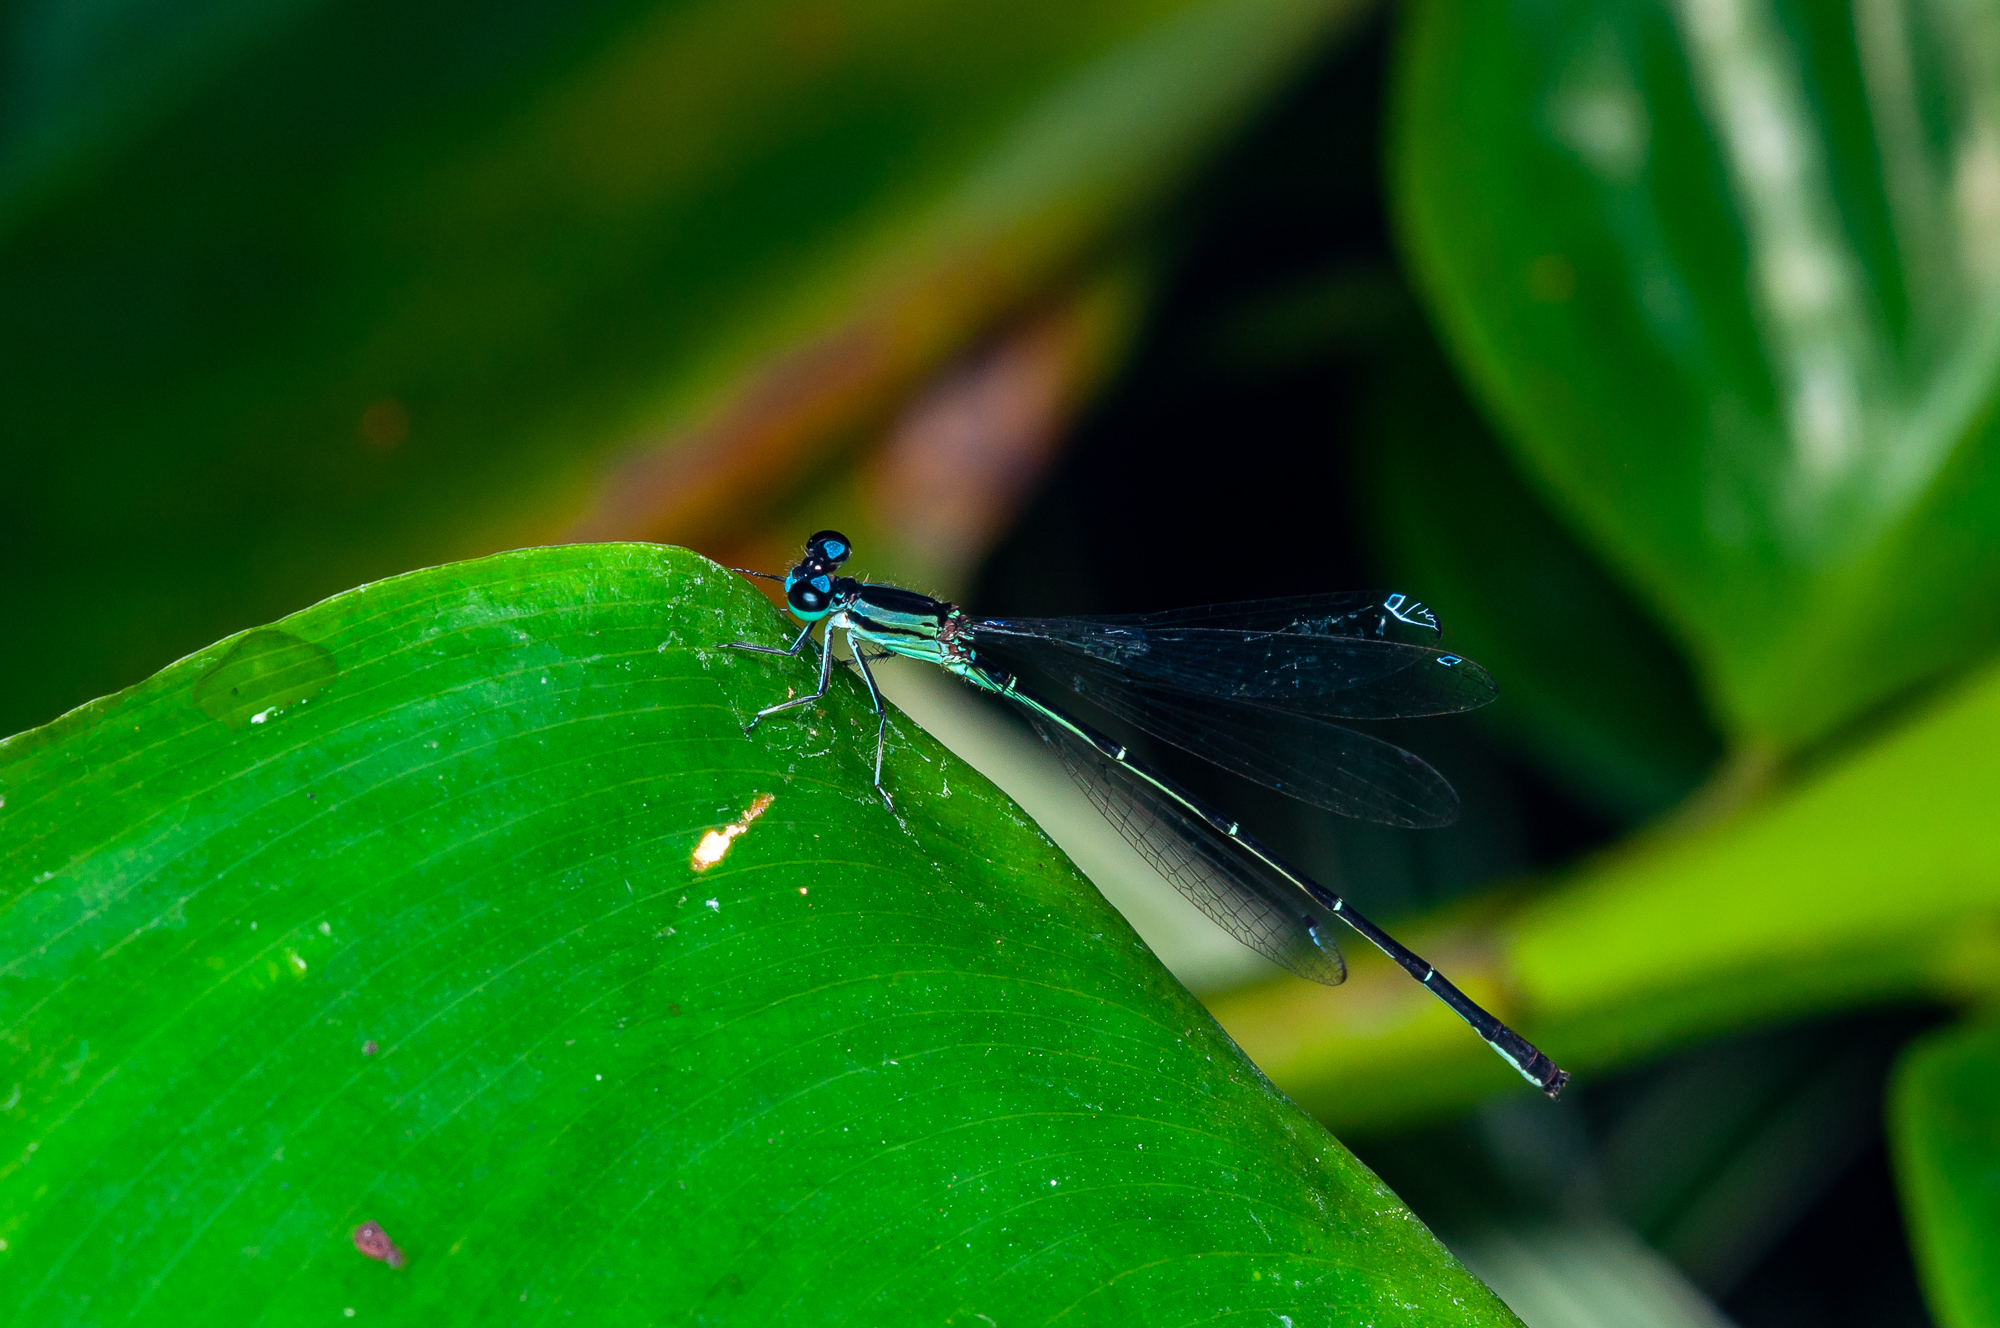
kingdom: Animalia
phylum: Arthropoda
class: Insecta
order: Odonata
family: Coenagrionidae
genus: Anisagrion
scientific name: Anisagrion allopterum
